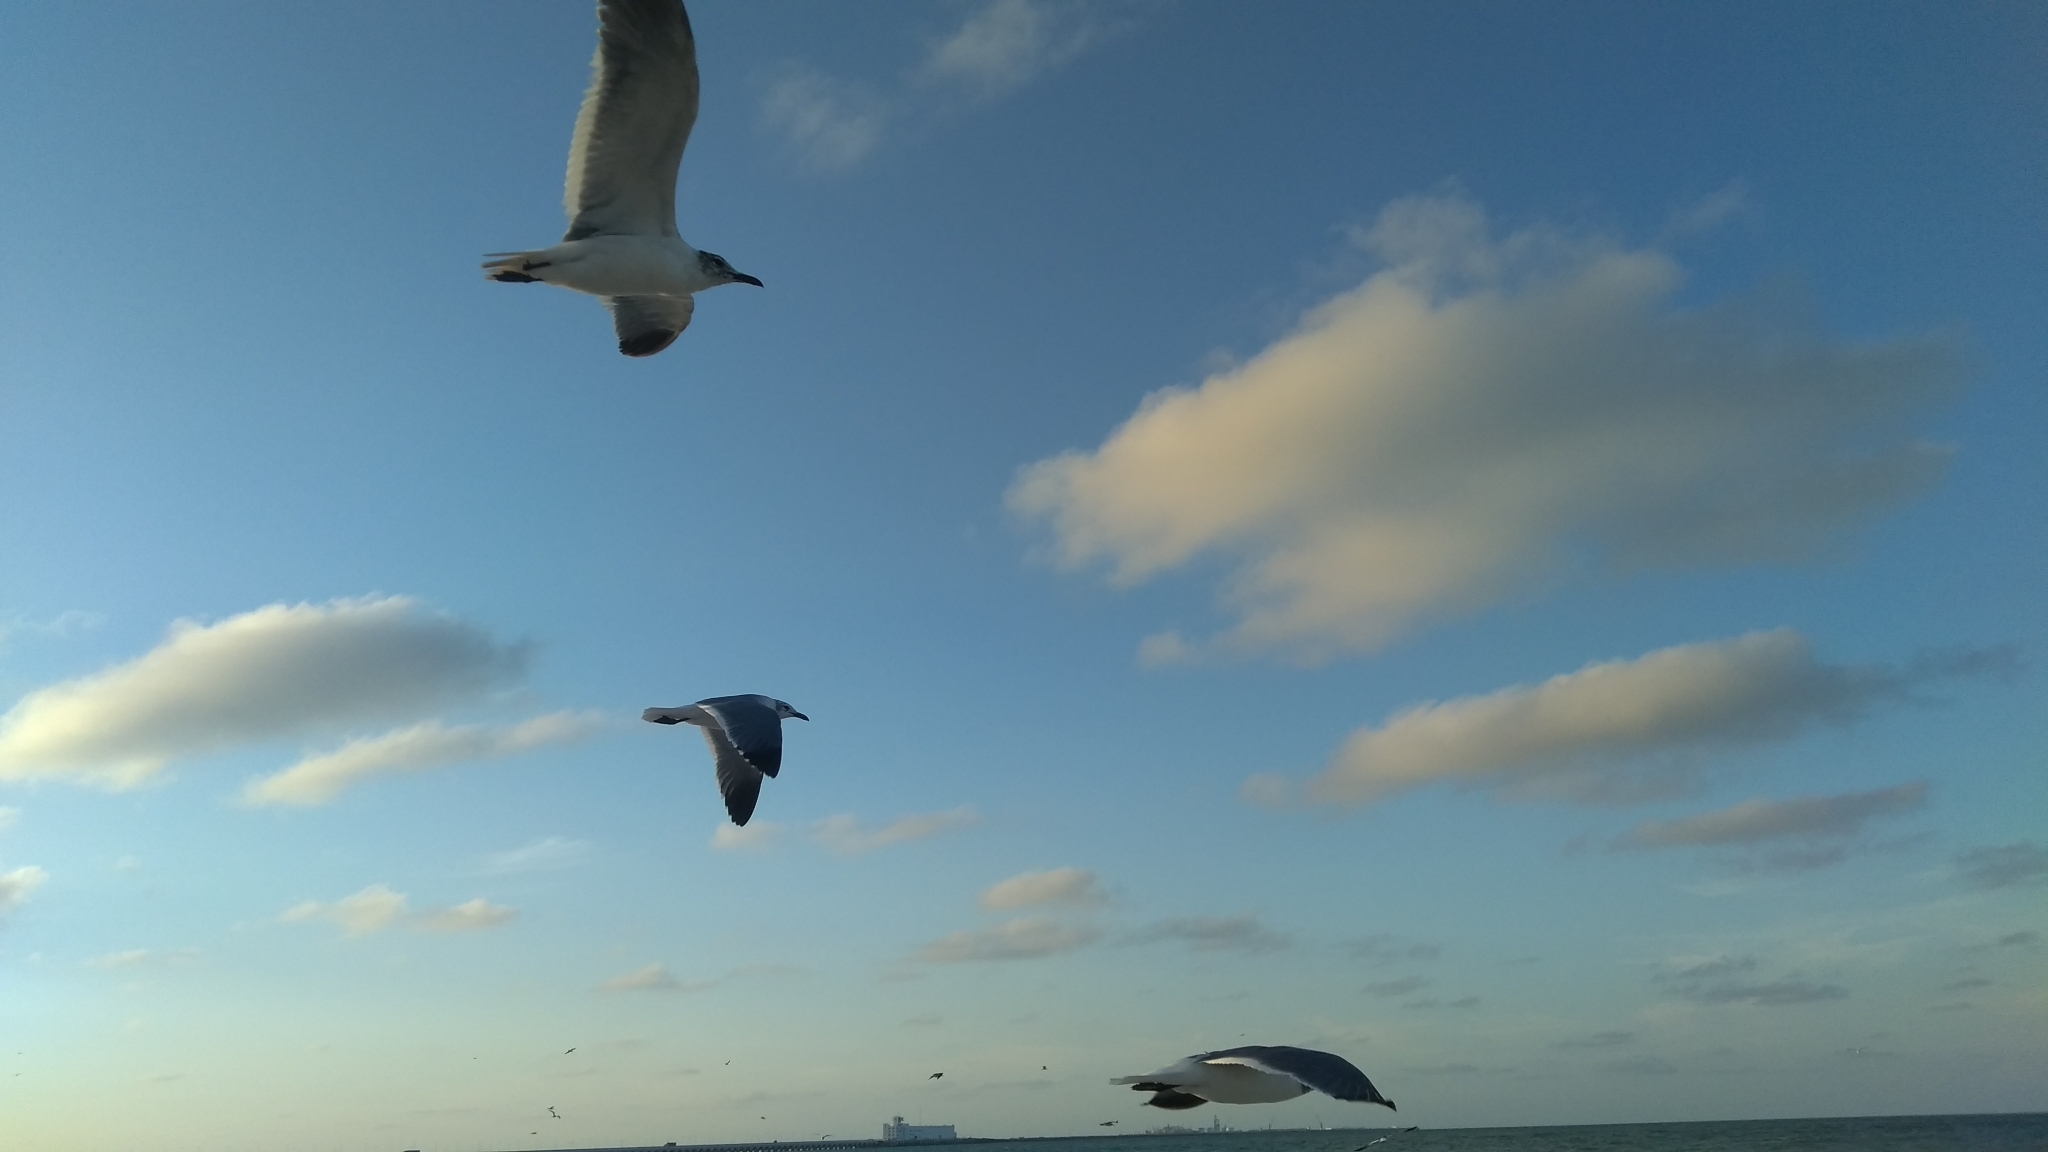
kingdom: Animalia
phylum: Chordata
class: Aves
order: Charadriiformes
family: Laridae
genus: Leucophaeus
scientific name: Leucophaeus atricilla
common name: Laughing gull
